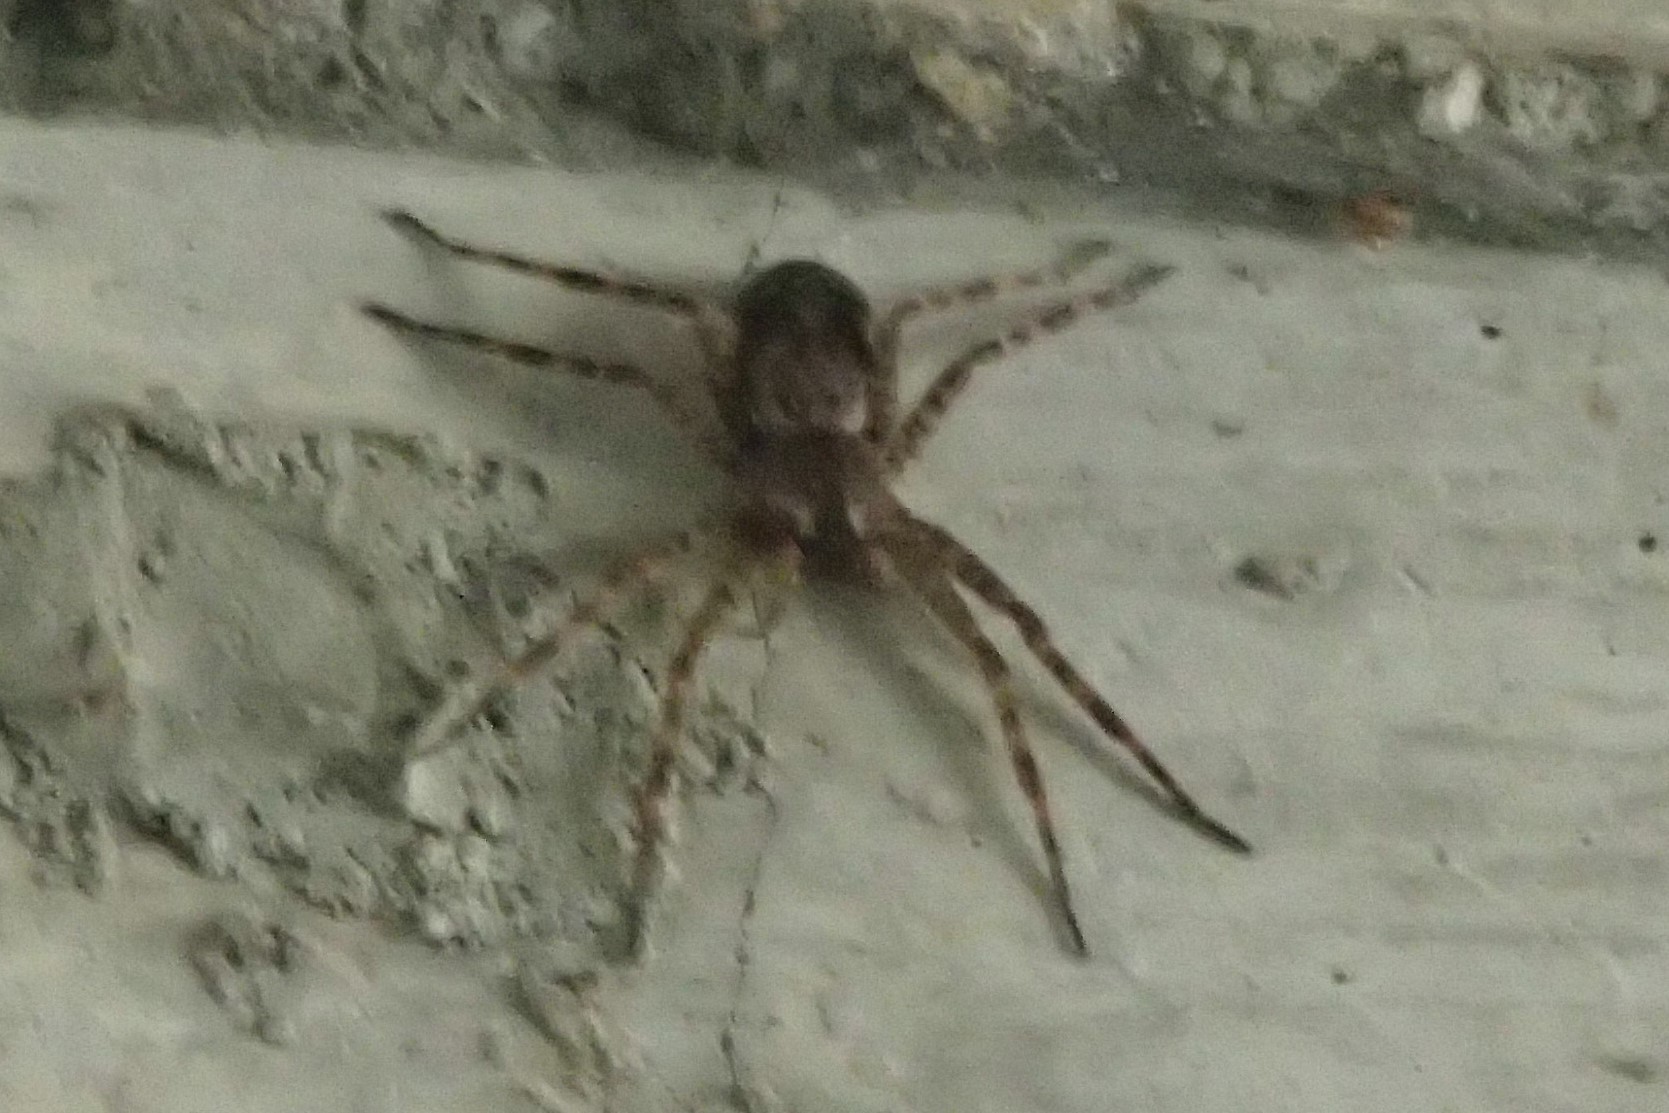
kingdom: Animalia
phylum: Arthropoda
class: Arachnida
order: Araneae
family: Pisauridae
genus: Dolomedes
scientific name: Dolomedes tenebrosus
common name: Dark fishing spider
